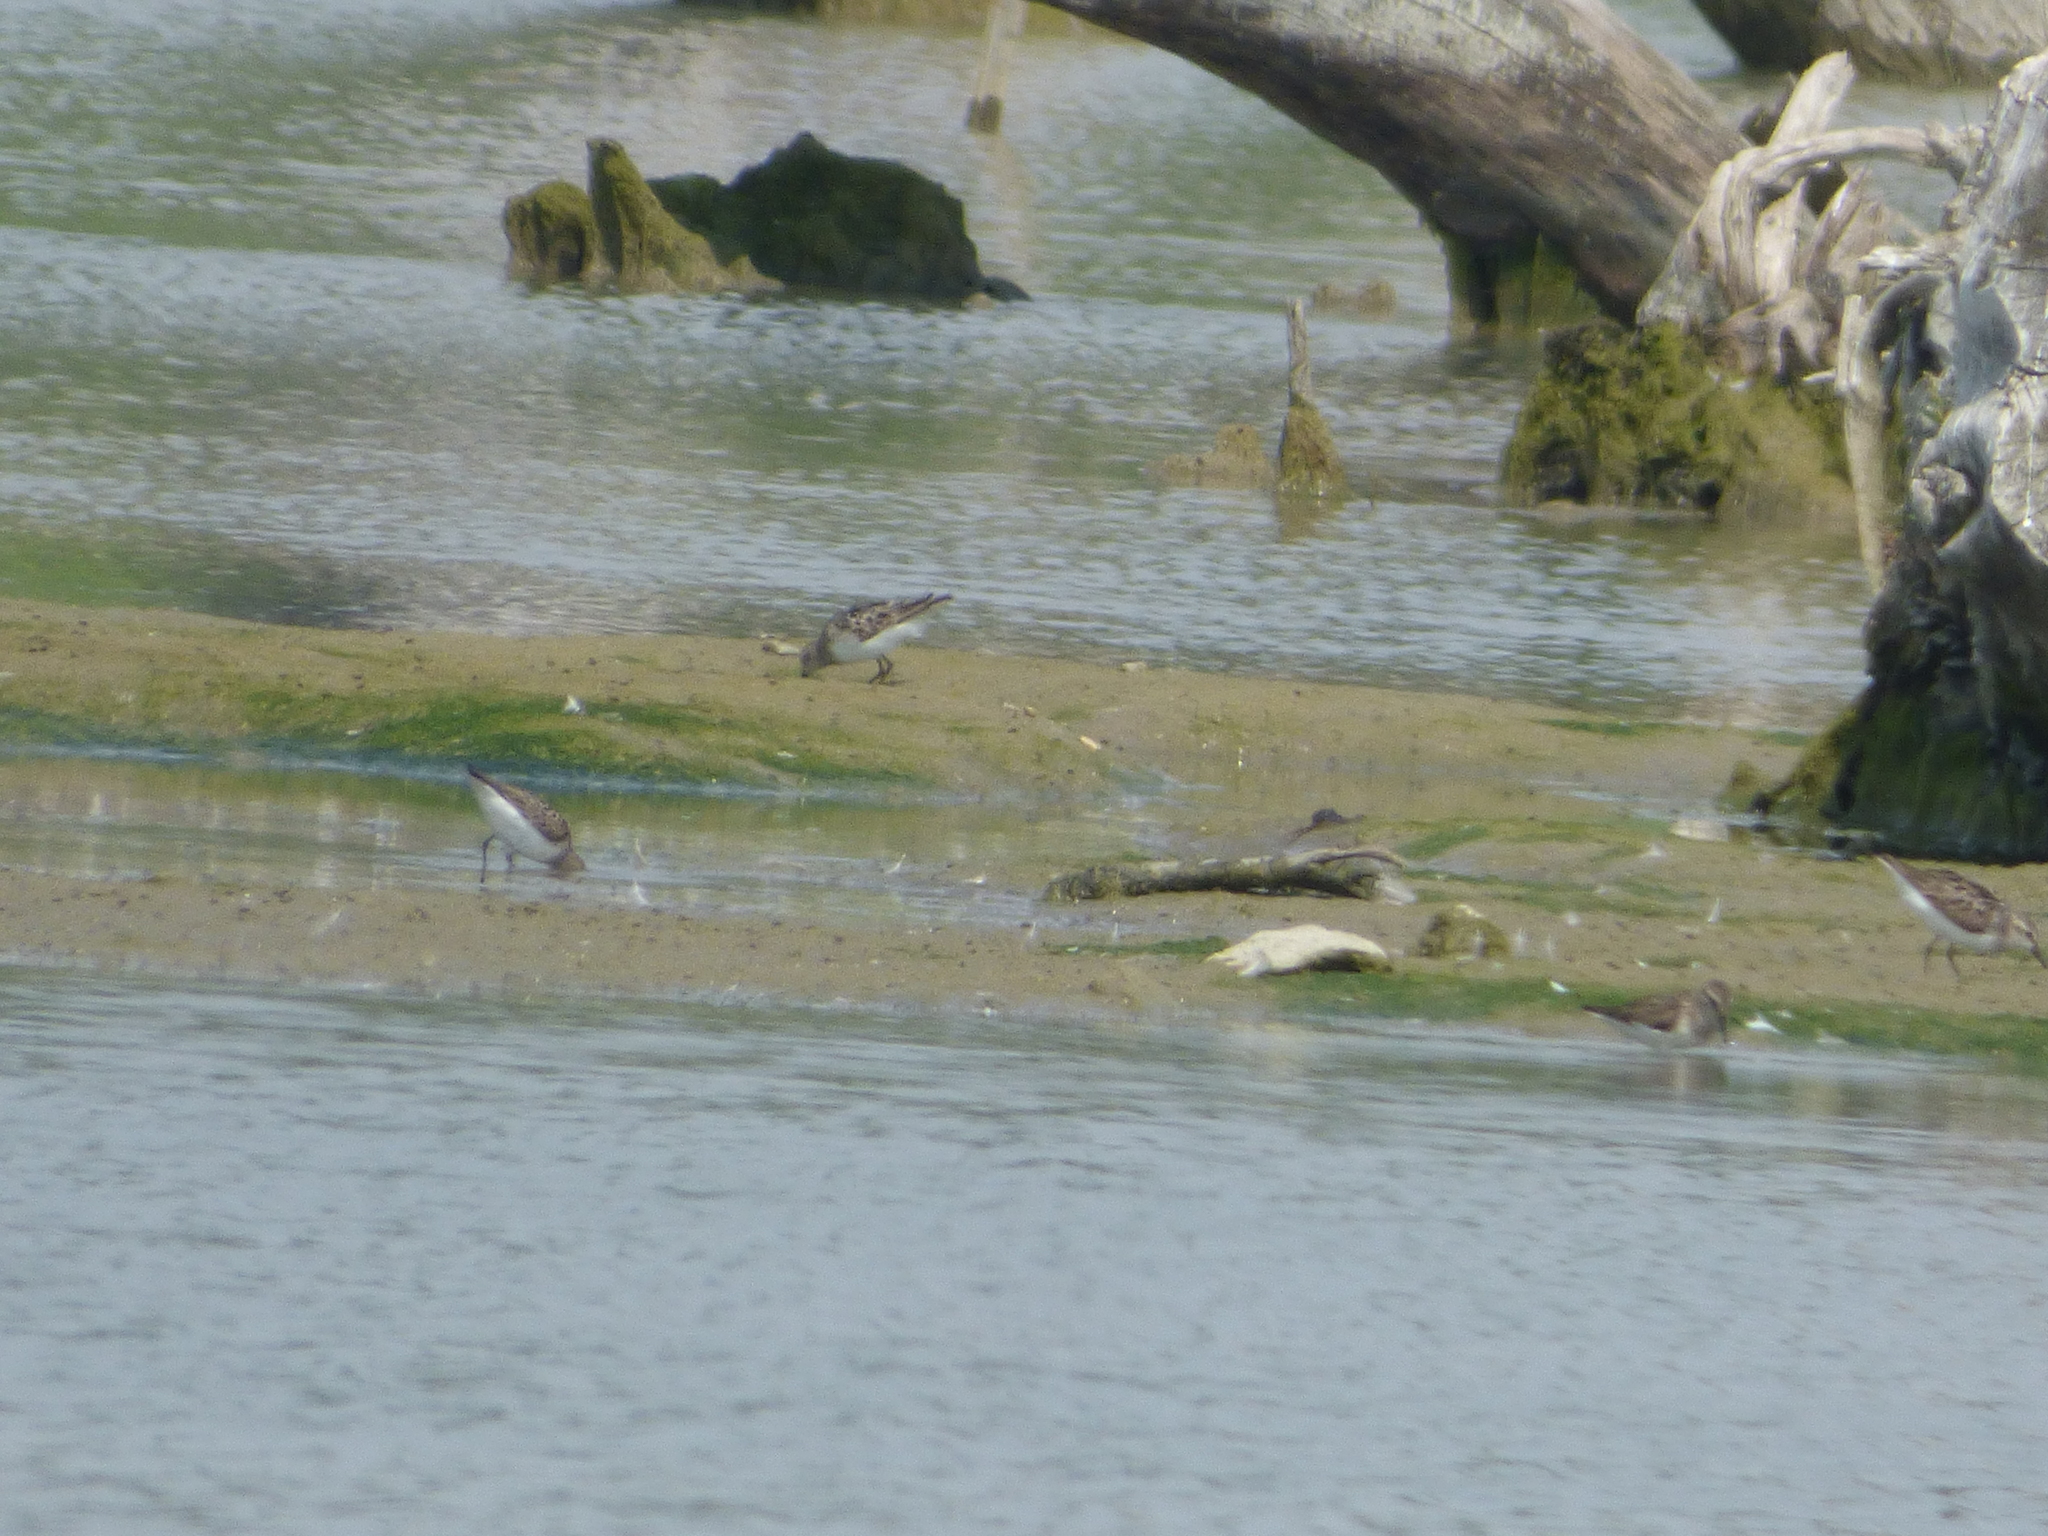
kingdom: Animalia
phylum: Chordata
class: Aves
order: Charadriiformes
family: Scolopacidae
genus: Calidris
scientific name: Calidris pusilla
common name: Semipalmated sandpiper
